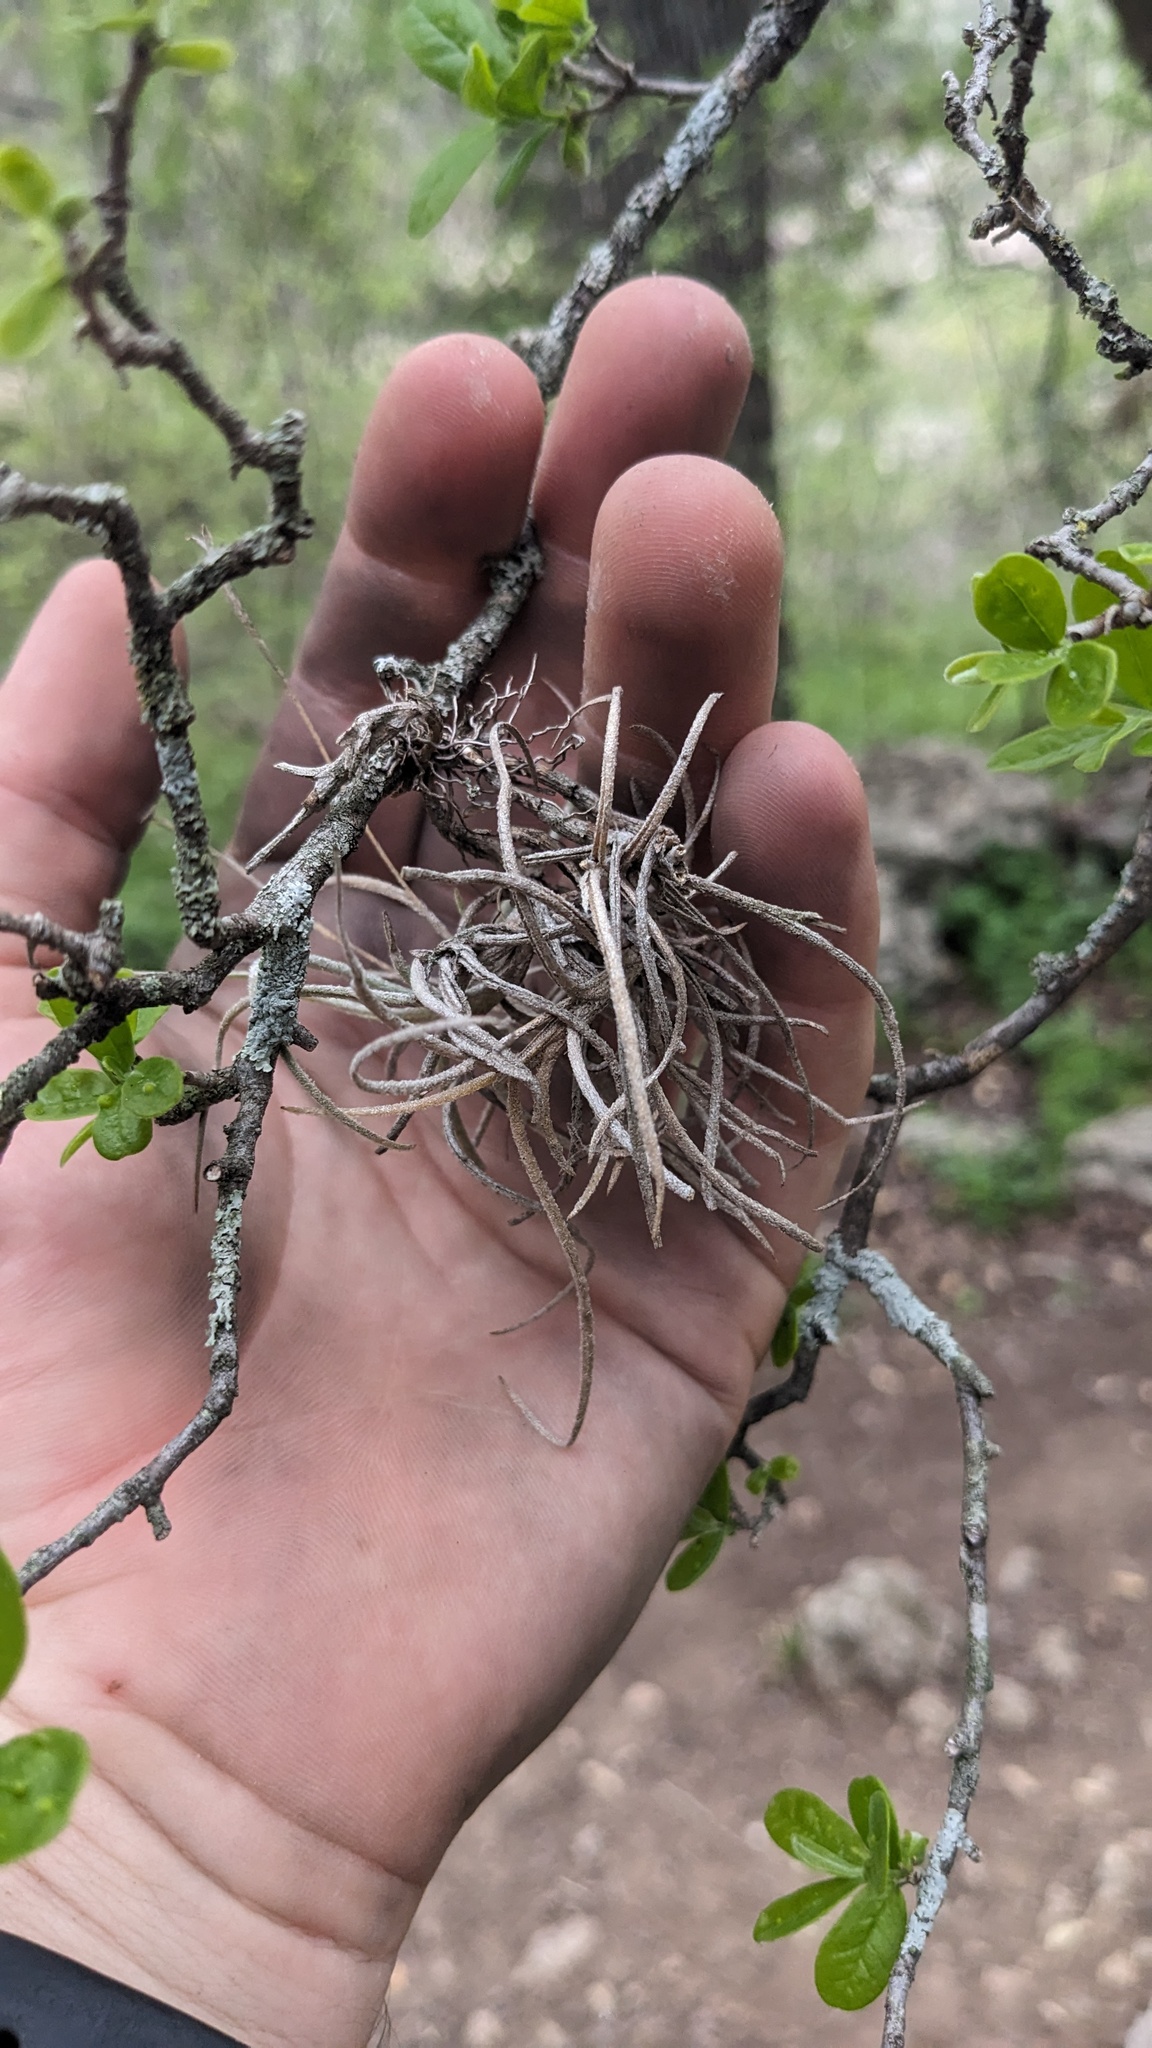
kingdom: Plantae
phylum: Tracheophyta
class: Liliopsida
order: Poales
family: Bromeliaceae
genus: Tillandsia
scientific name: Tillandsia recurvata
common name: Small ballmoss
